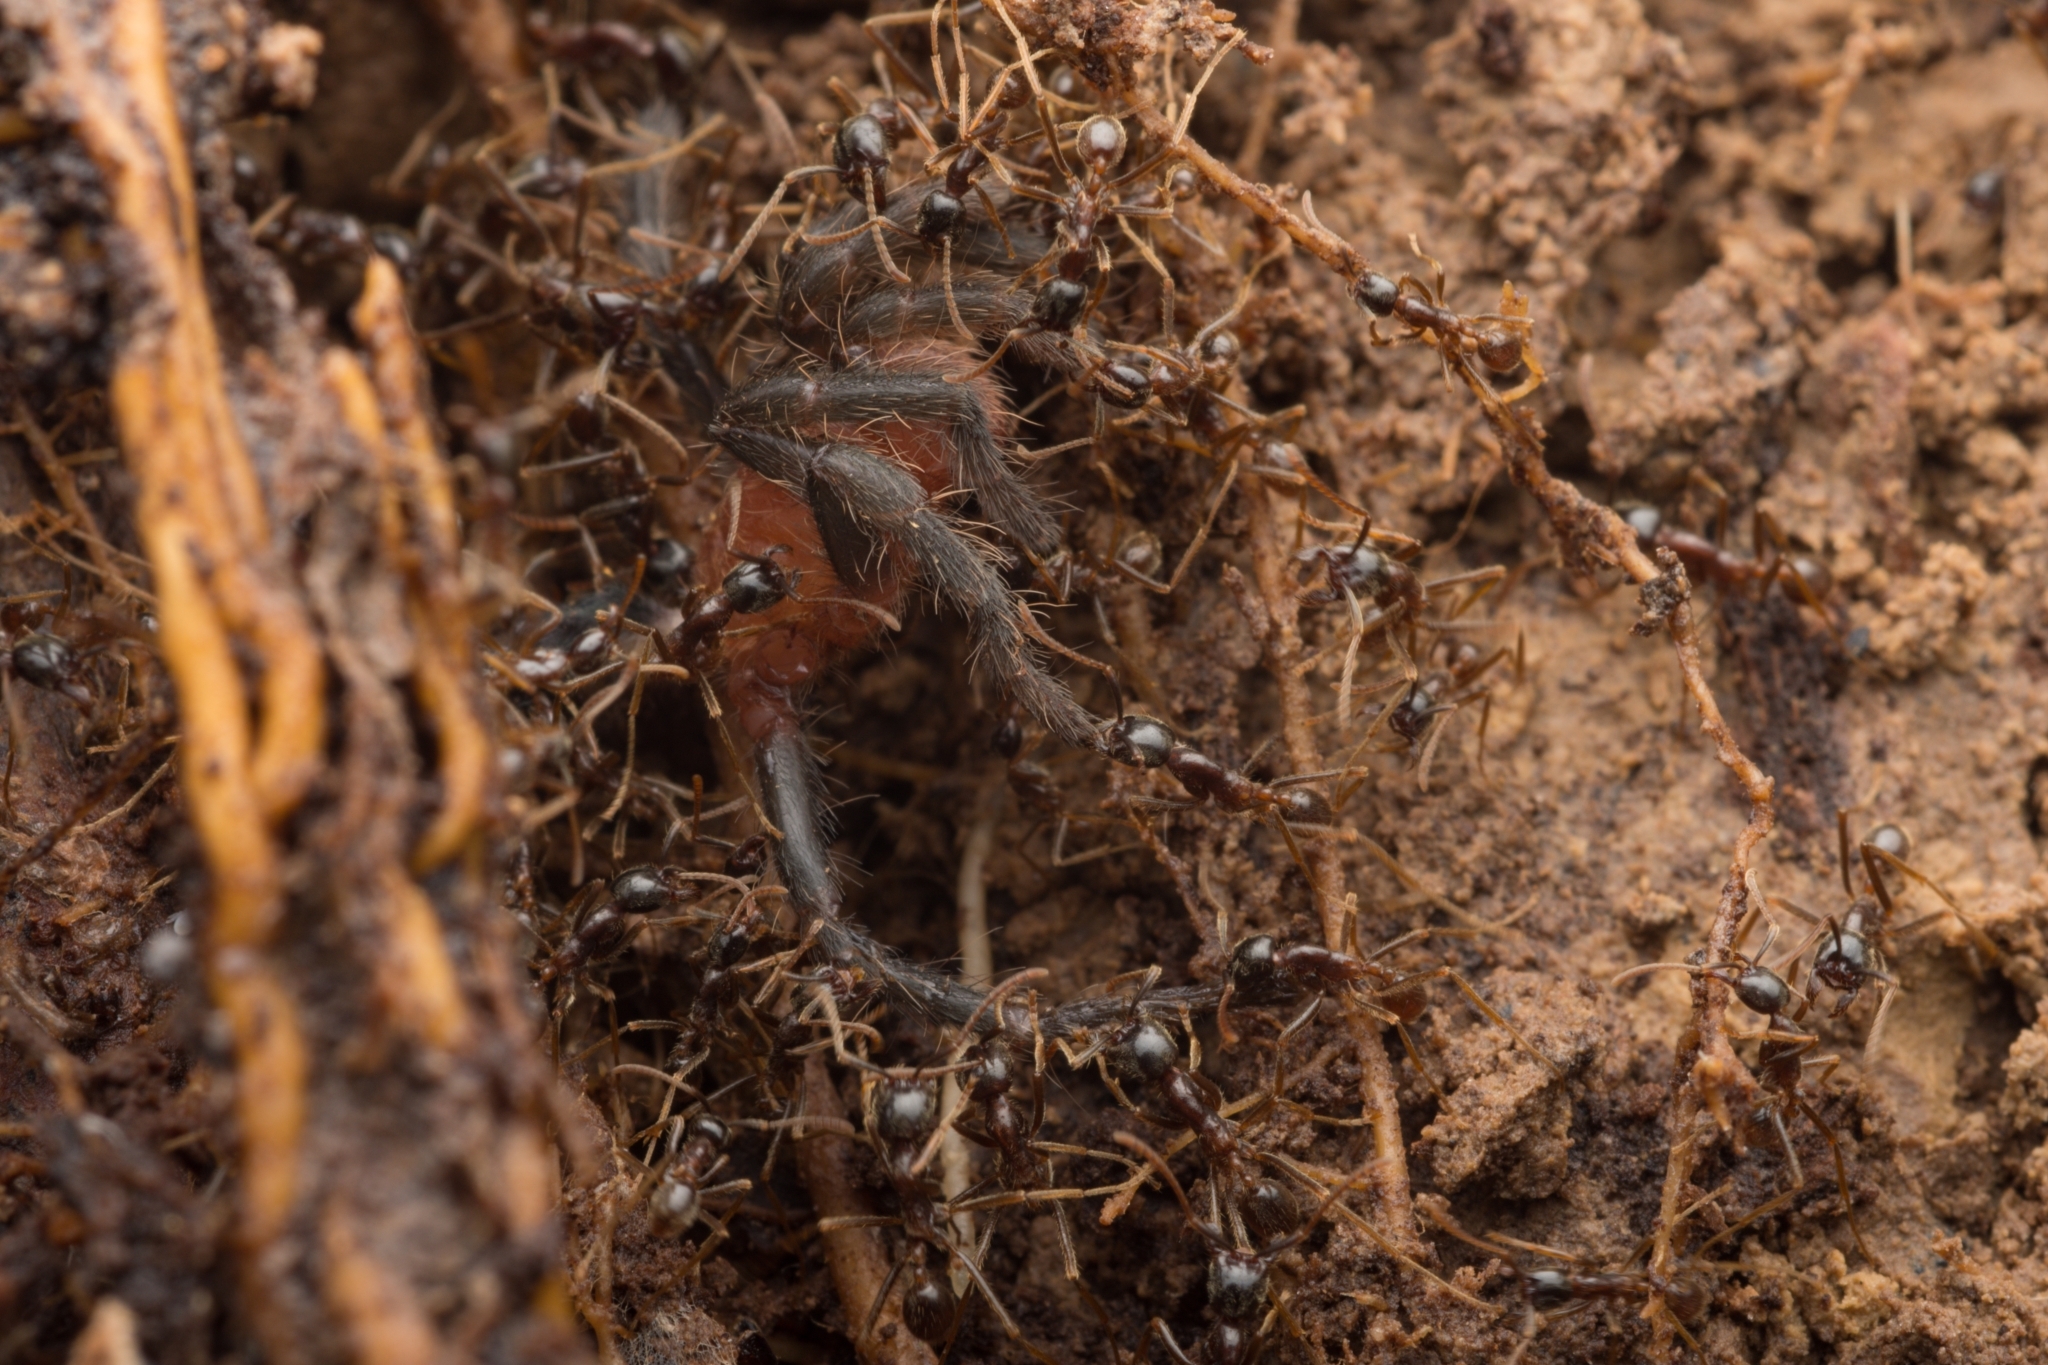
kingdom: Animalia
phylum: Arthropoda
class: Insecta
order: Hymenoptera
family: Formicidae
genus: Labidus
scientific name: Labidus praedator
